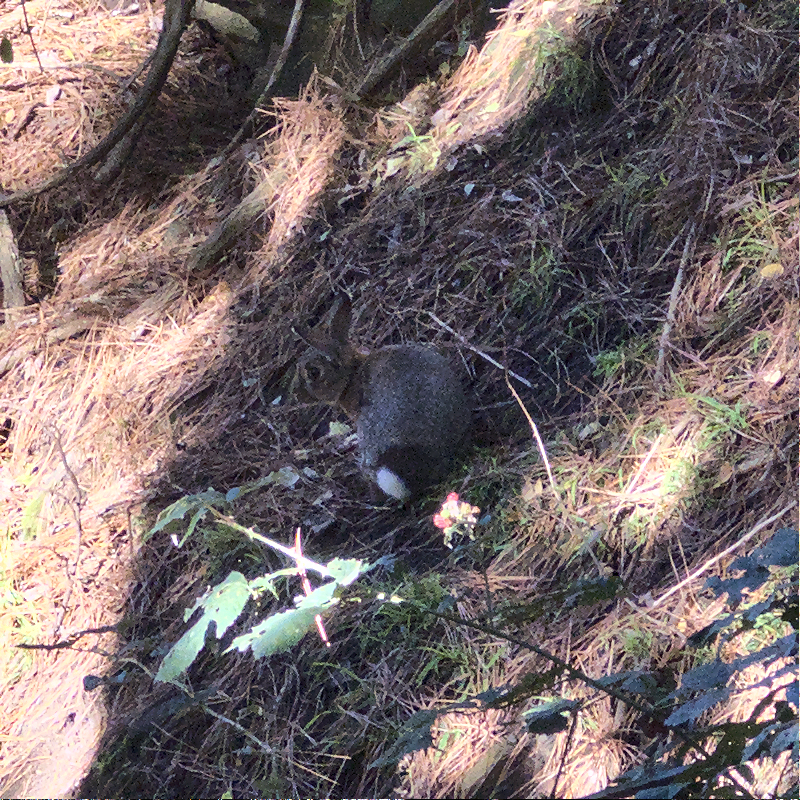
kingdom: Animalia
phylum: Chordata
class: Mammalia
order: Lagomorpha
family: Leporidae
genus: Oryctolagus
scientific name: Oryctolagus cuniculus
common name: European rabbit
